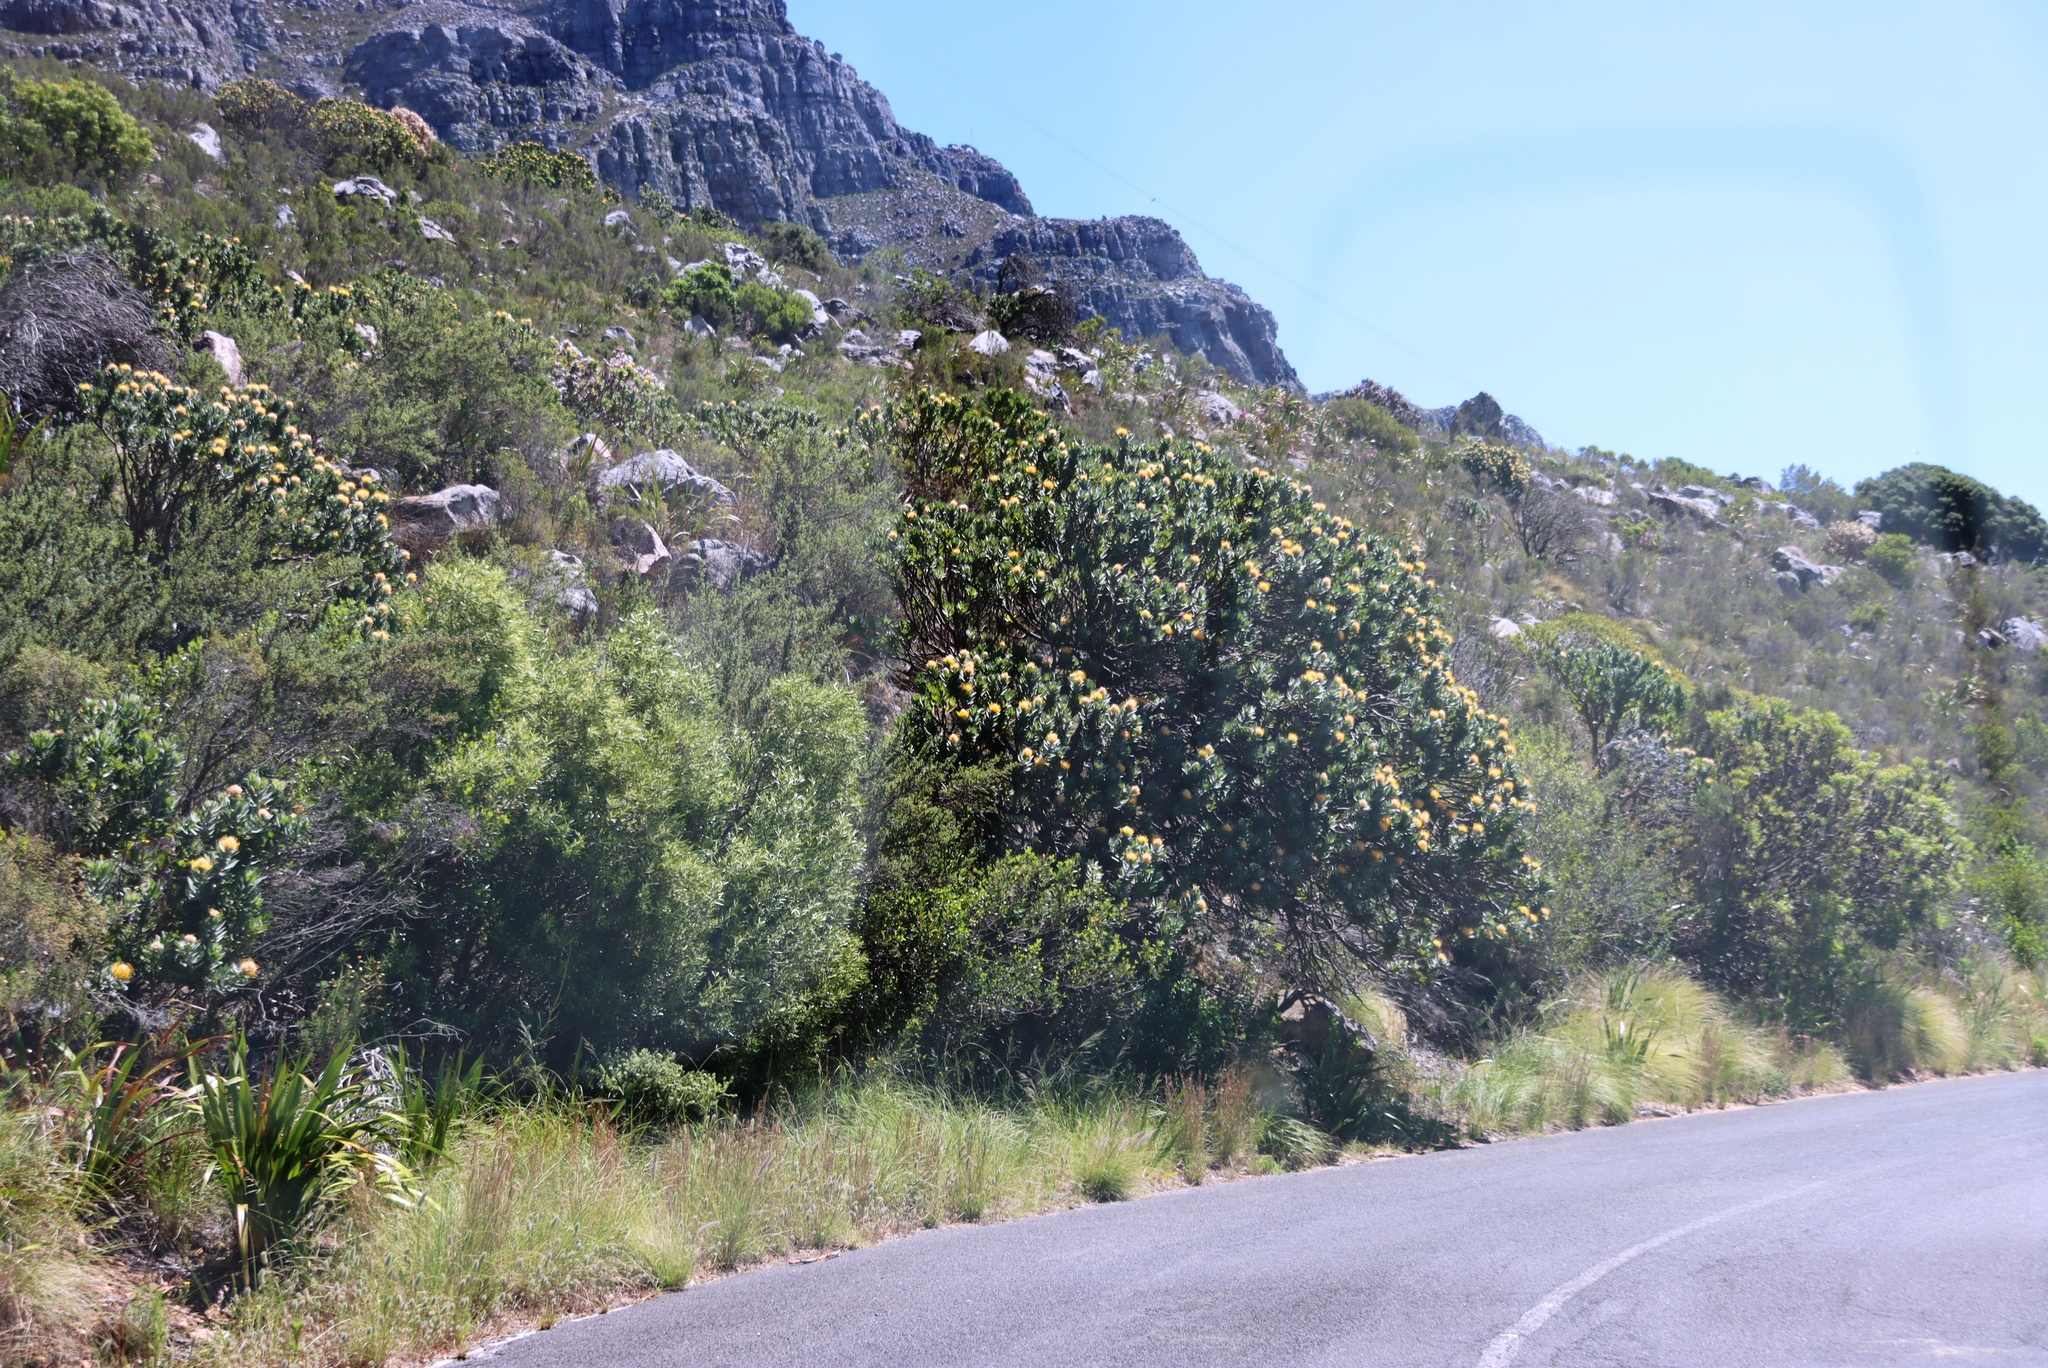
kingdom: Plantae
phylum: Tracheophyta
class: Magnoliopsida
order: Proteales
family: Proteaceae
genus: Leucospermum
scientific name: Leucospermum conocarpodendron
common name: Tree pincushion
